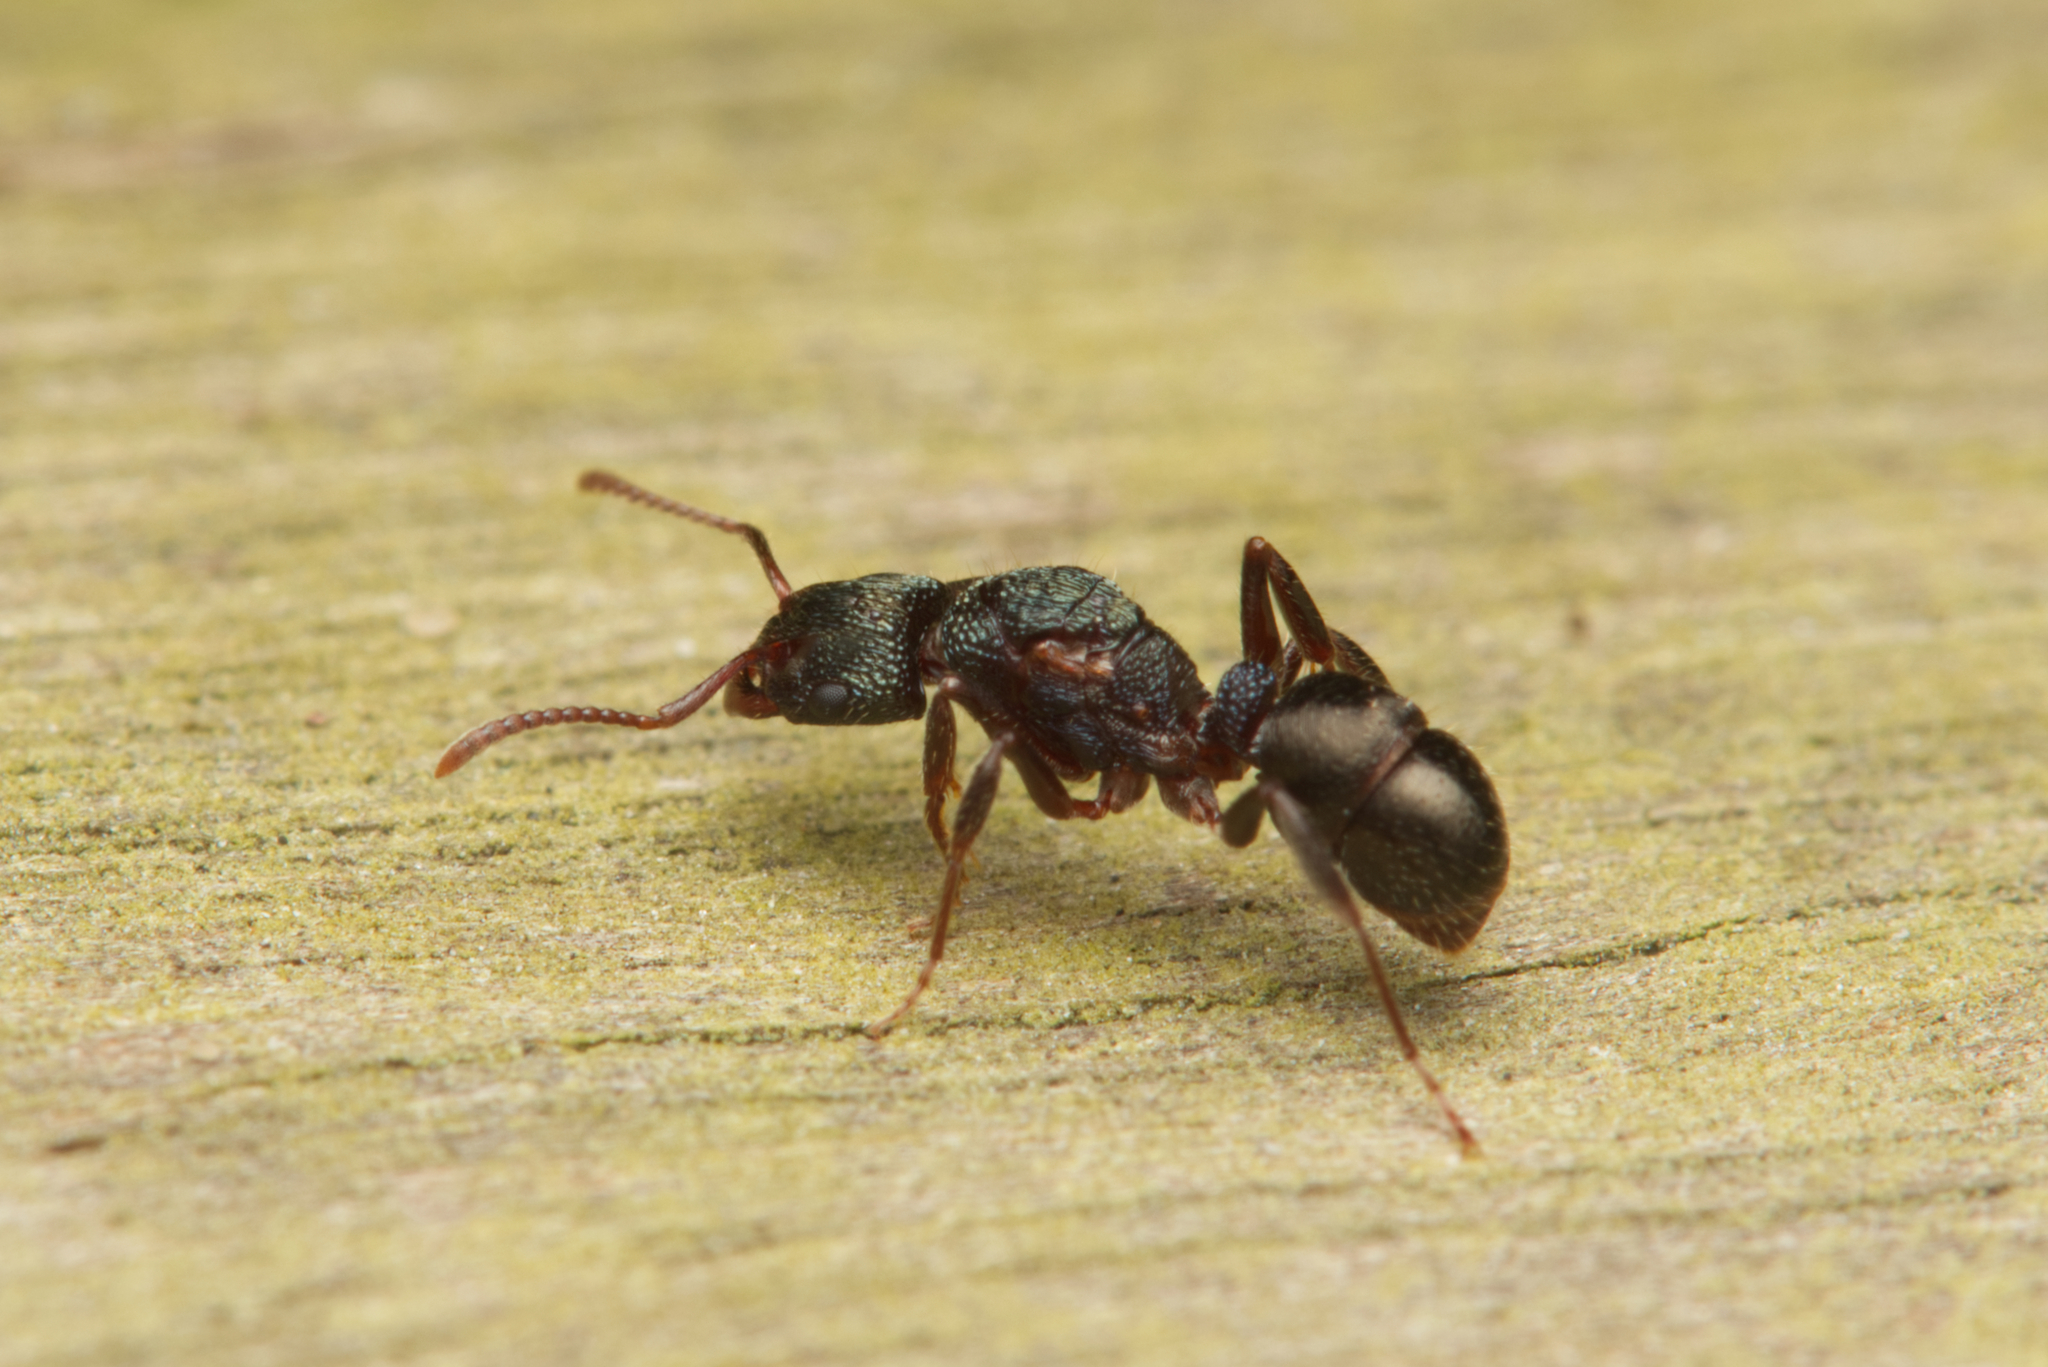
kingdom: Animalia
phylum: Arthropoda
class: Insecta
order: Hymenoptera
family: Formicidae
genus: Rhytidoponera
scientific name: Rhytidoponera victoriae
